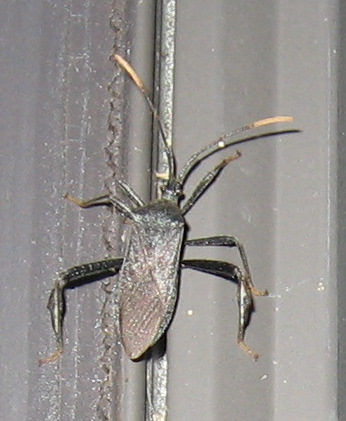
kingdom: Animalia
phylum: Arthropoda
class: Insecta
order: Hemiptera
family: Coreidae
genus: Acanthocephala
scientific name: Acanthocephala terminalis
